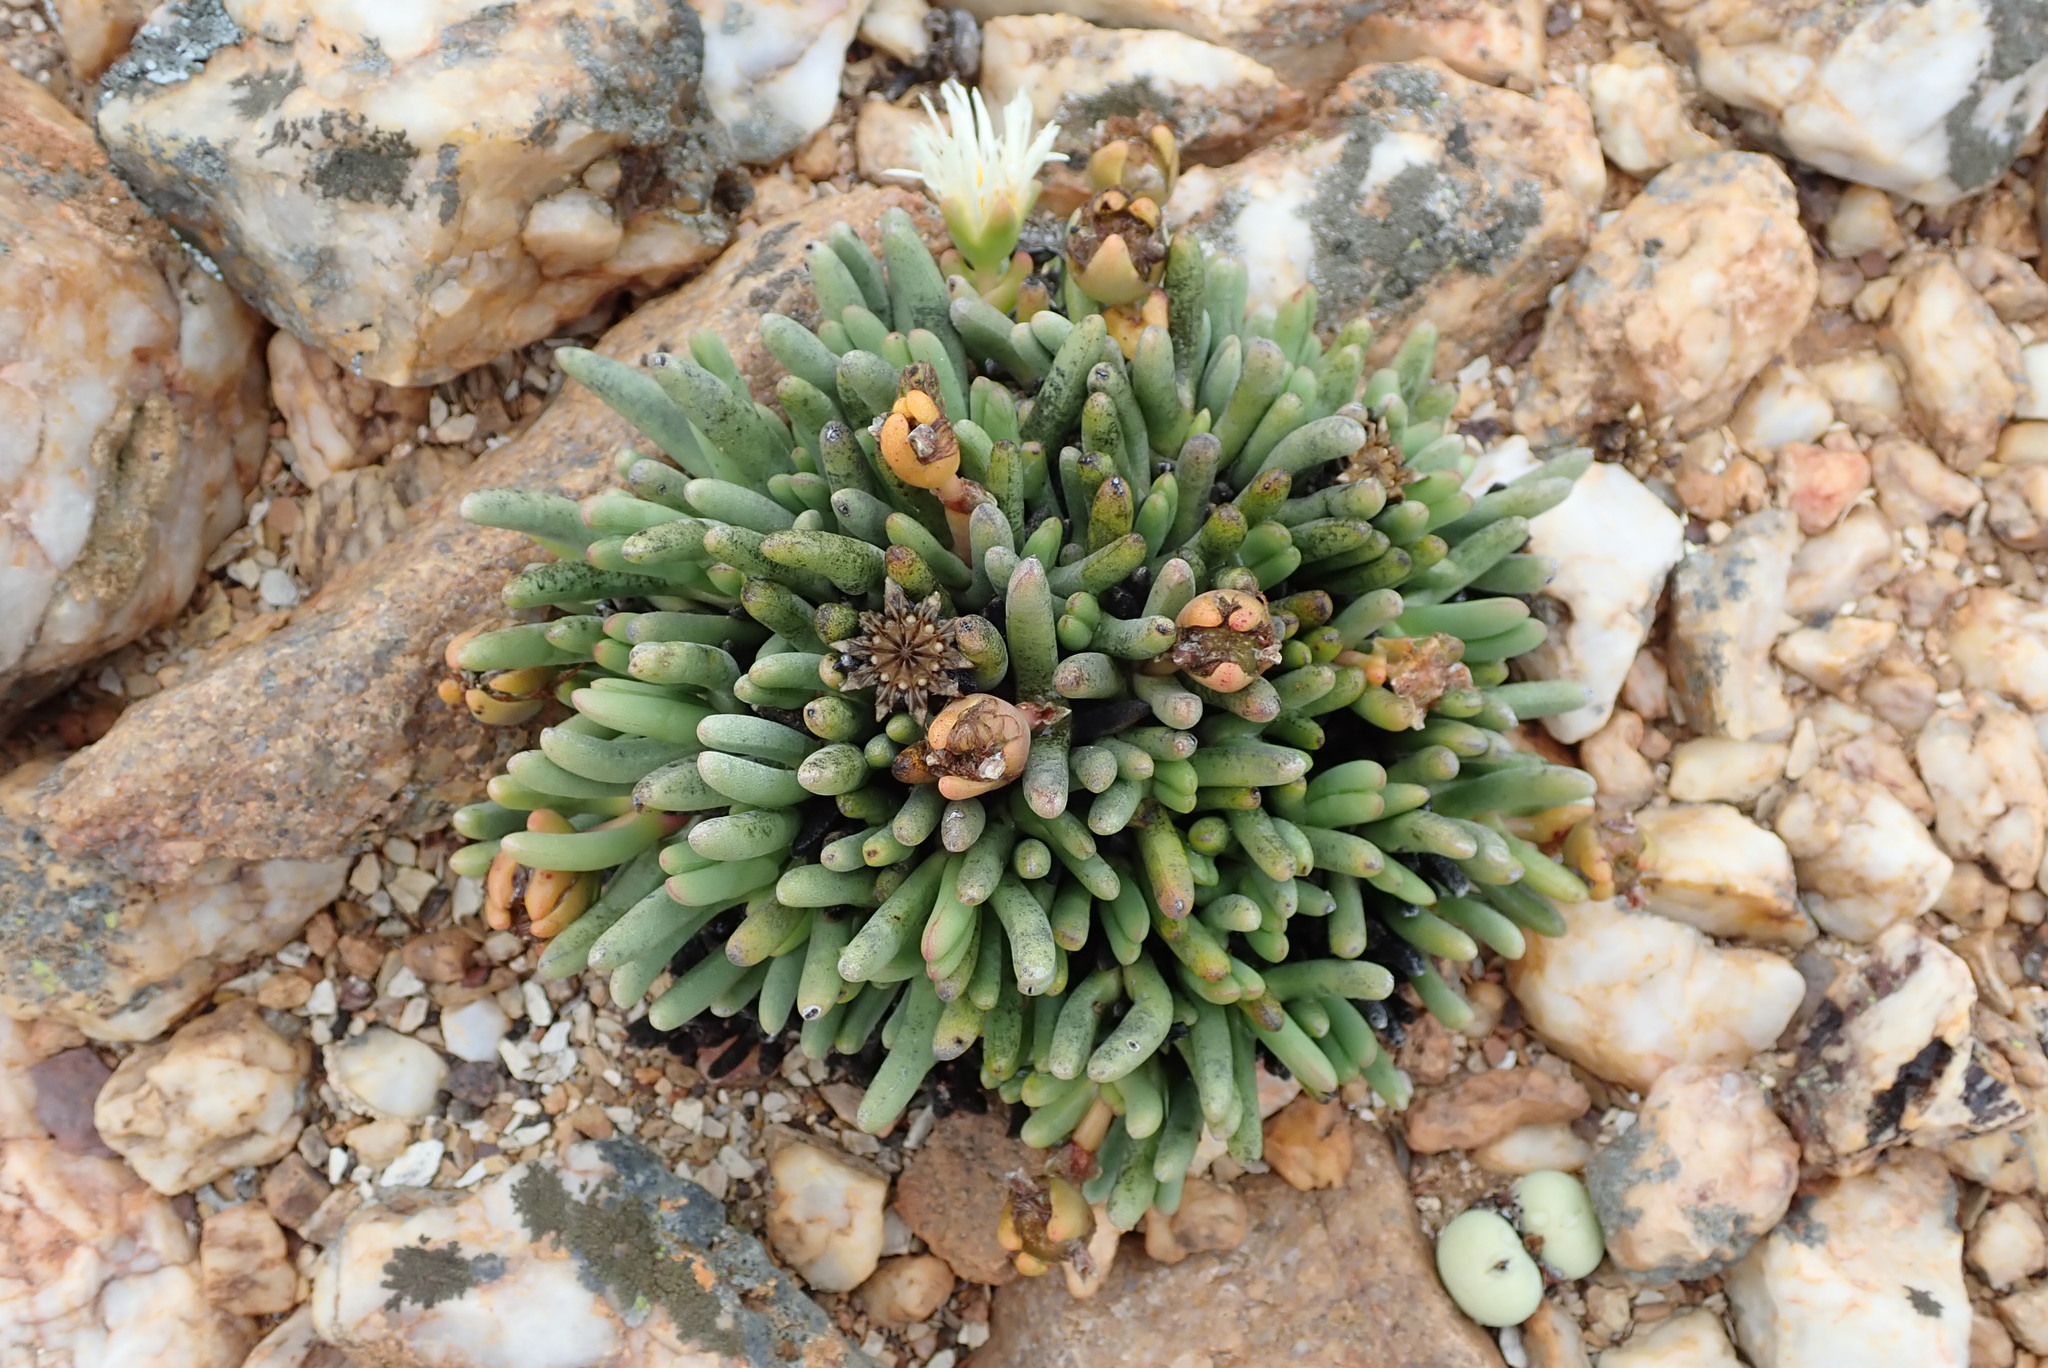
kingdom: Plantae
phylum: Tracheophyta
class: Magnoliopsida
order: Caryophyllales
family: Aizoaceae
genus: Cephalophyllum
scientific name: Cephalophyllum staminodiosum
